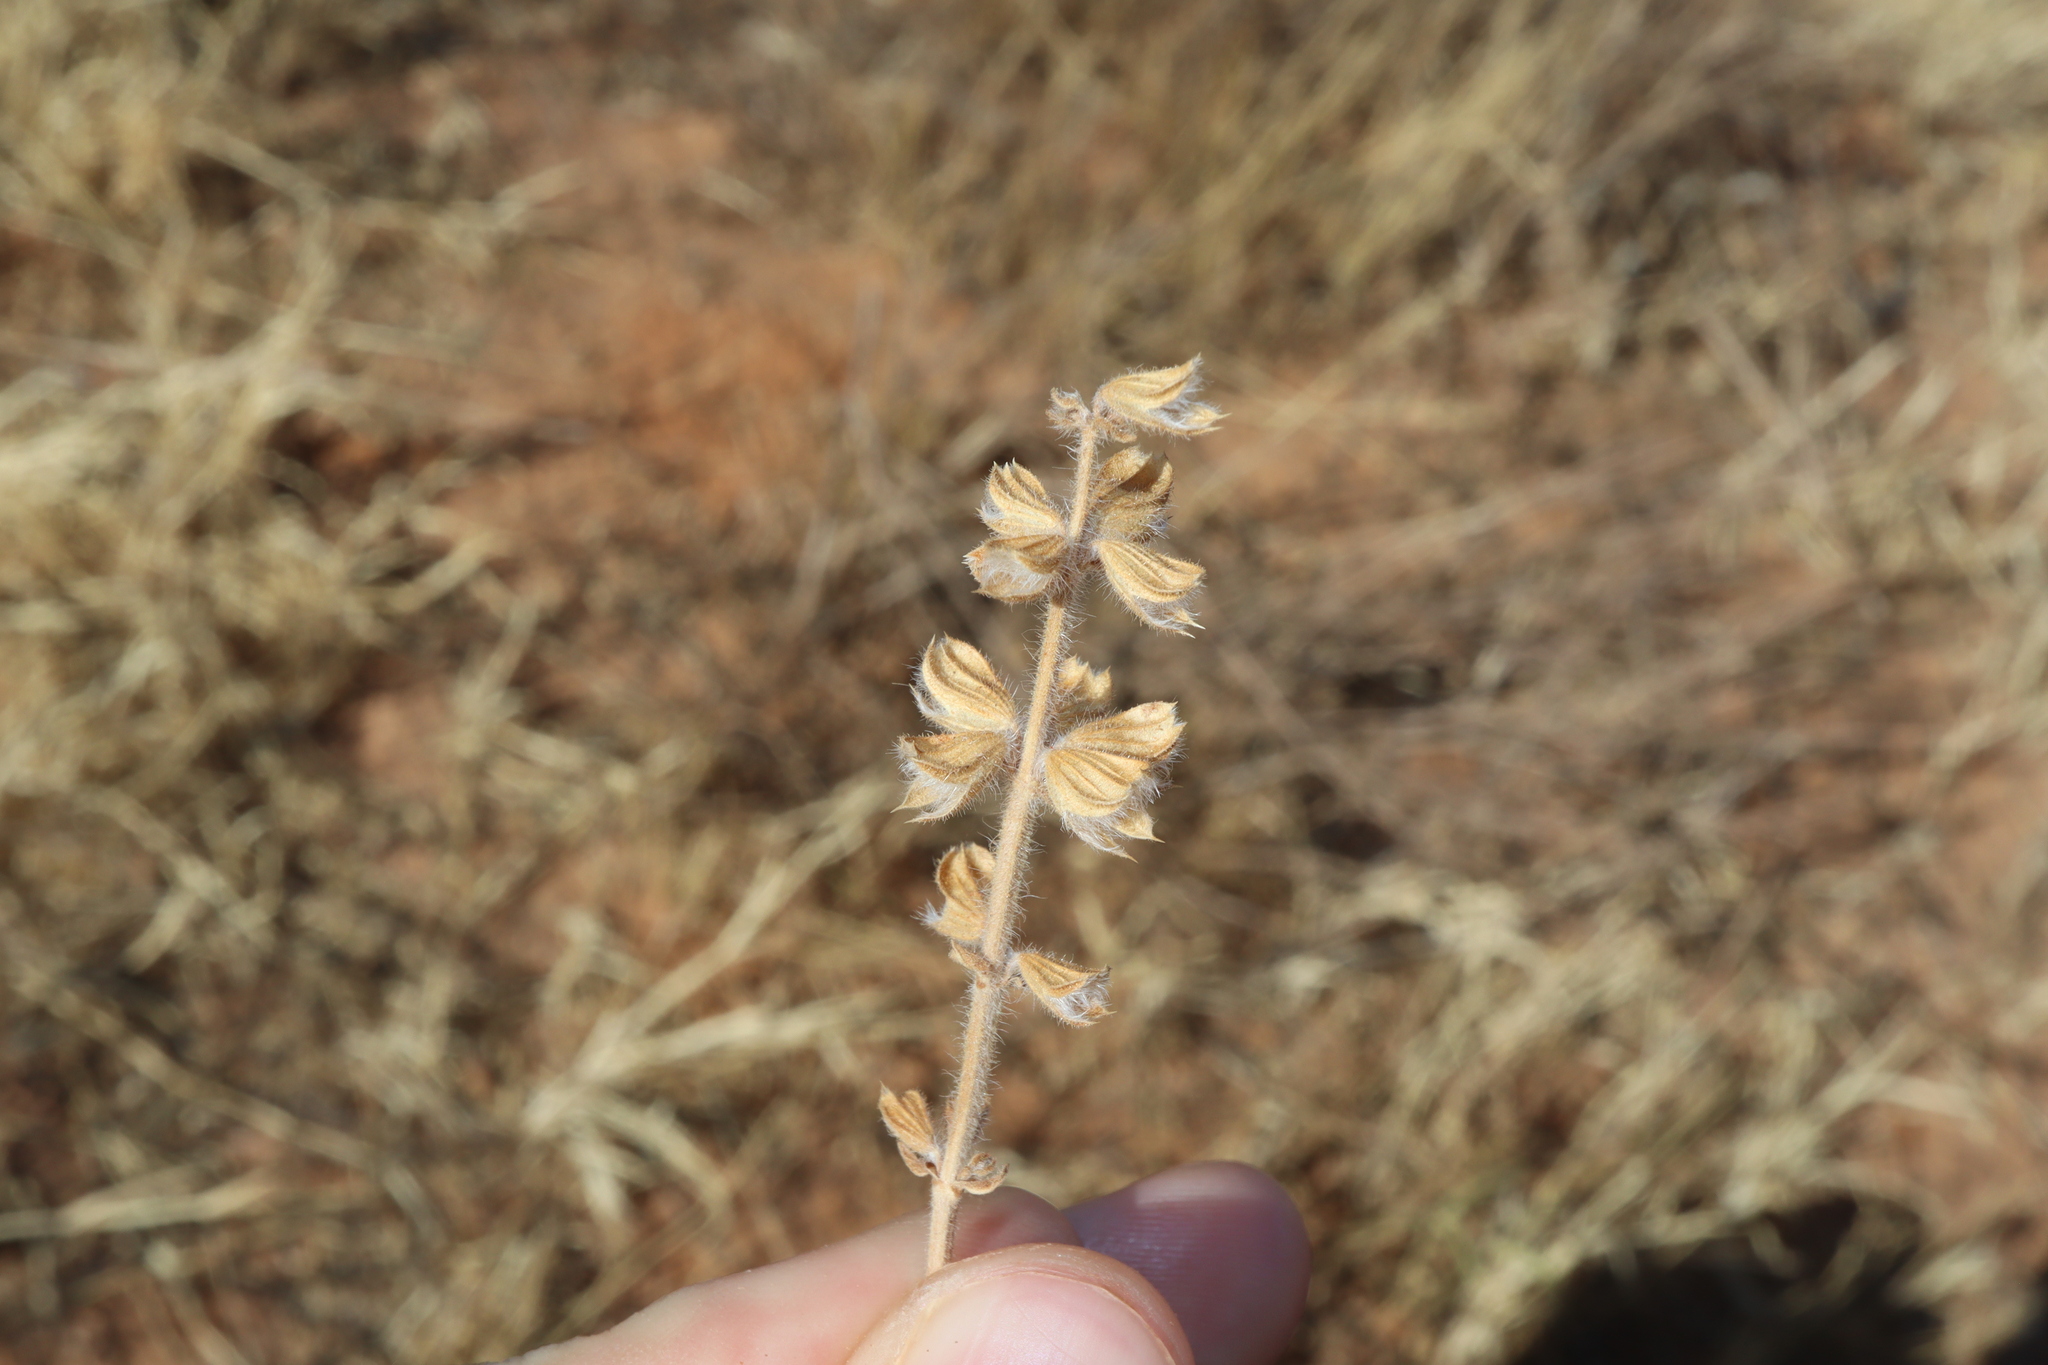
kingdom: Plantae
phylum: Tracheophyta
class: Magnoliopsida
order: Lamiales
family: Lamiaceae
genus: Salvia
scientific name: Salvia verbenaca
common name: Wild clary
